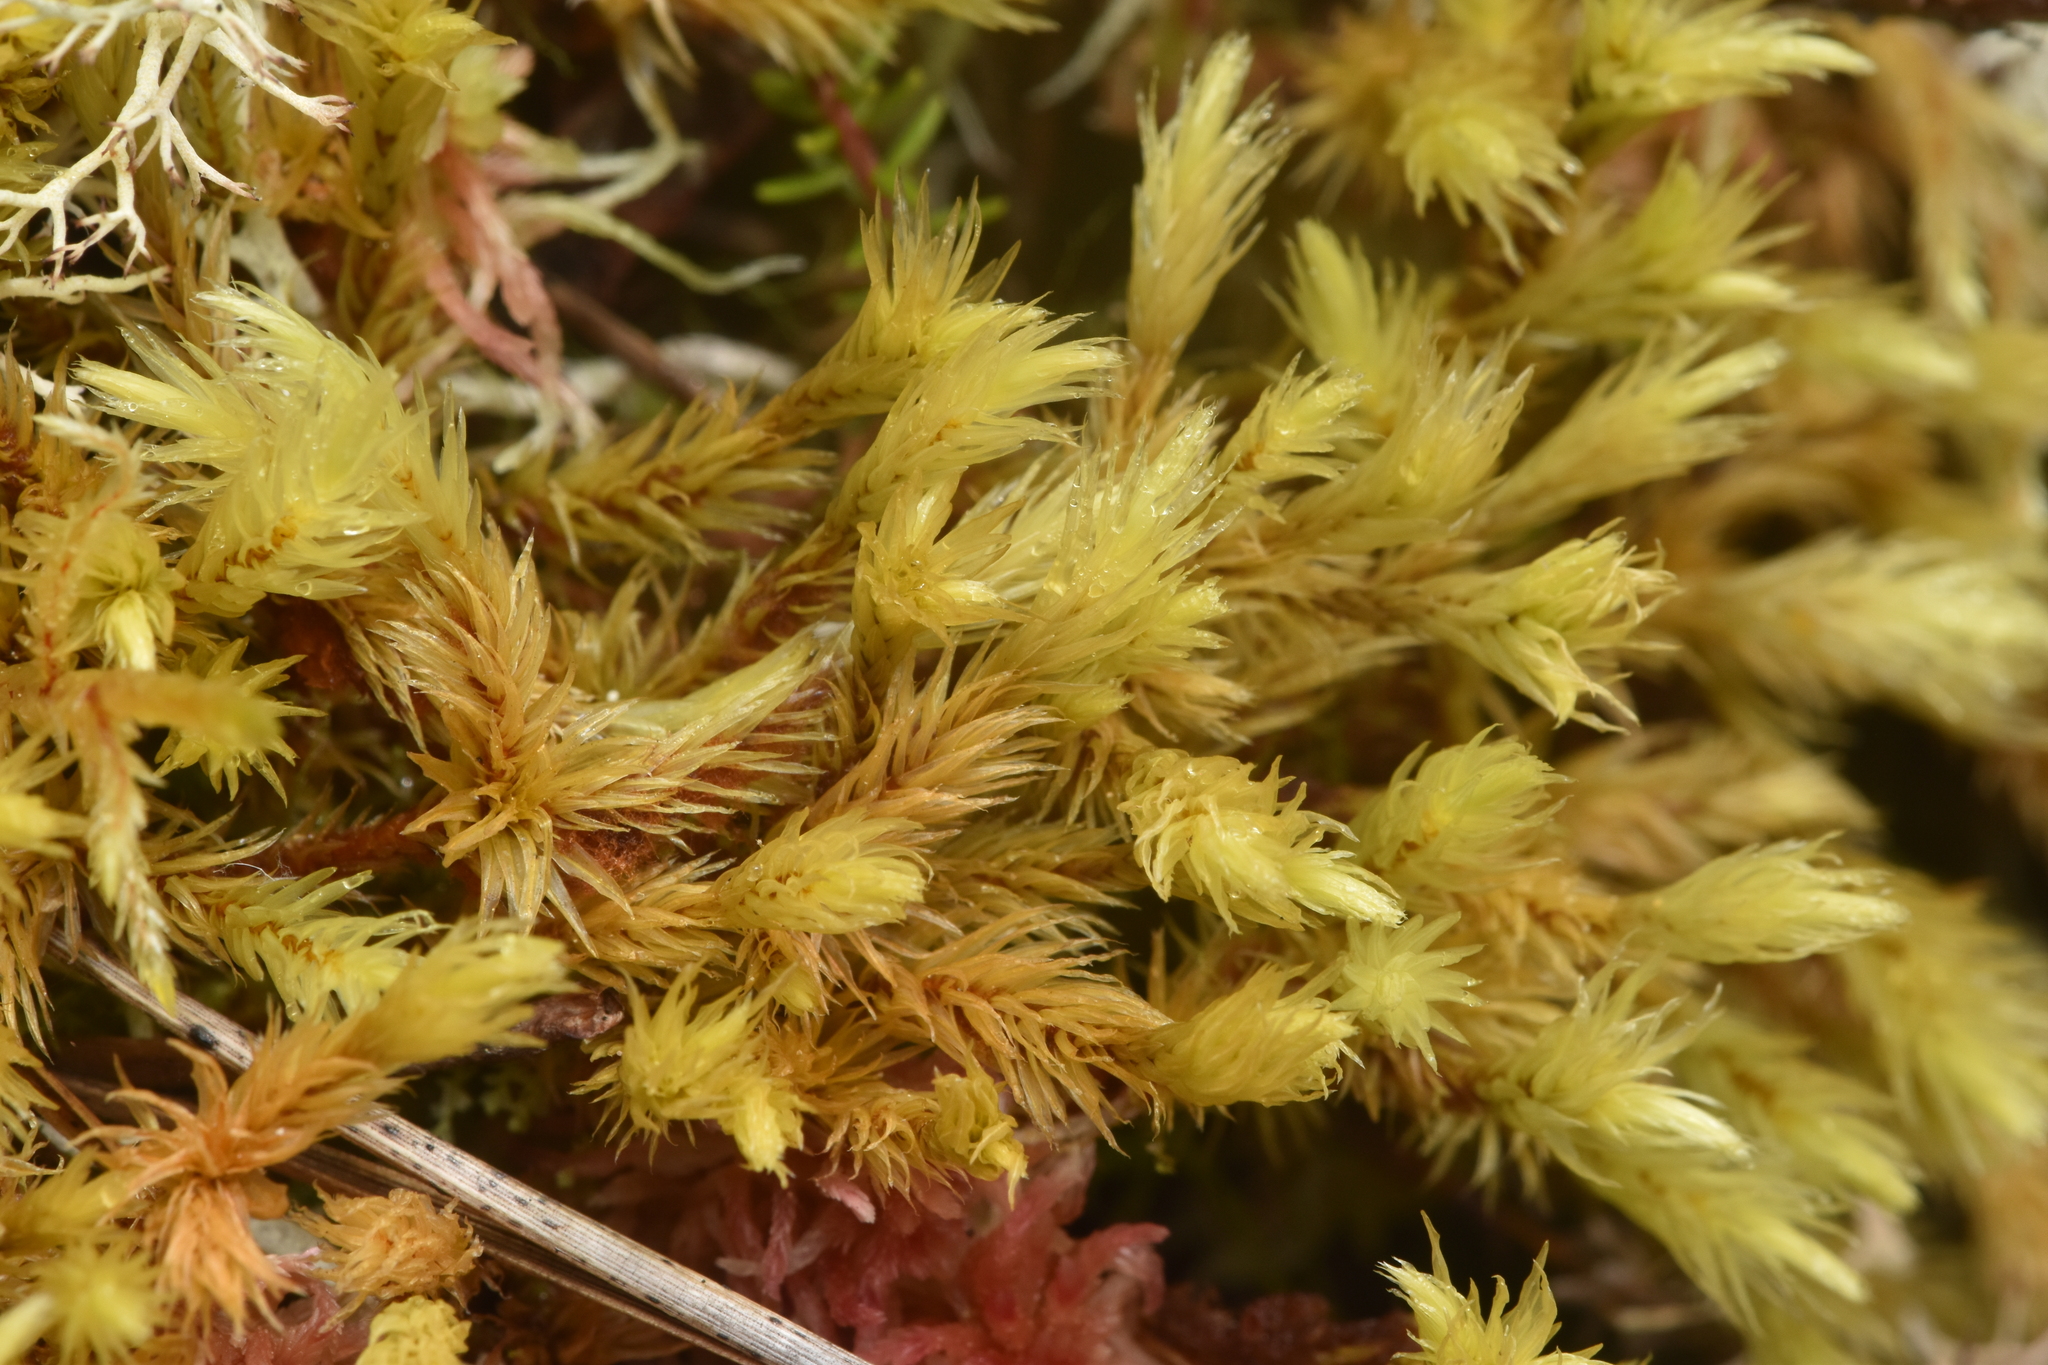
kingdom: Plantae
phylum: Bryophyta
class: Bryopsida
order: Aulacomniales
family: Aulacomniaceae
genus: Aulacomnium
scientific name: Aulacomnium palustre
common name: Bog groove-moss
